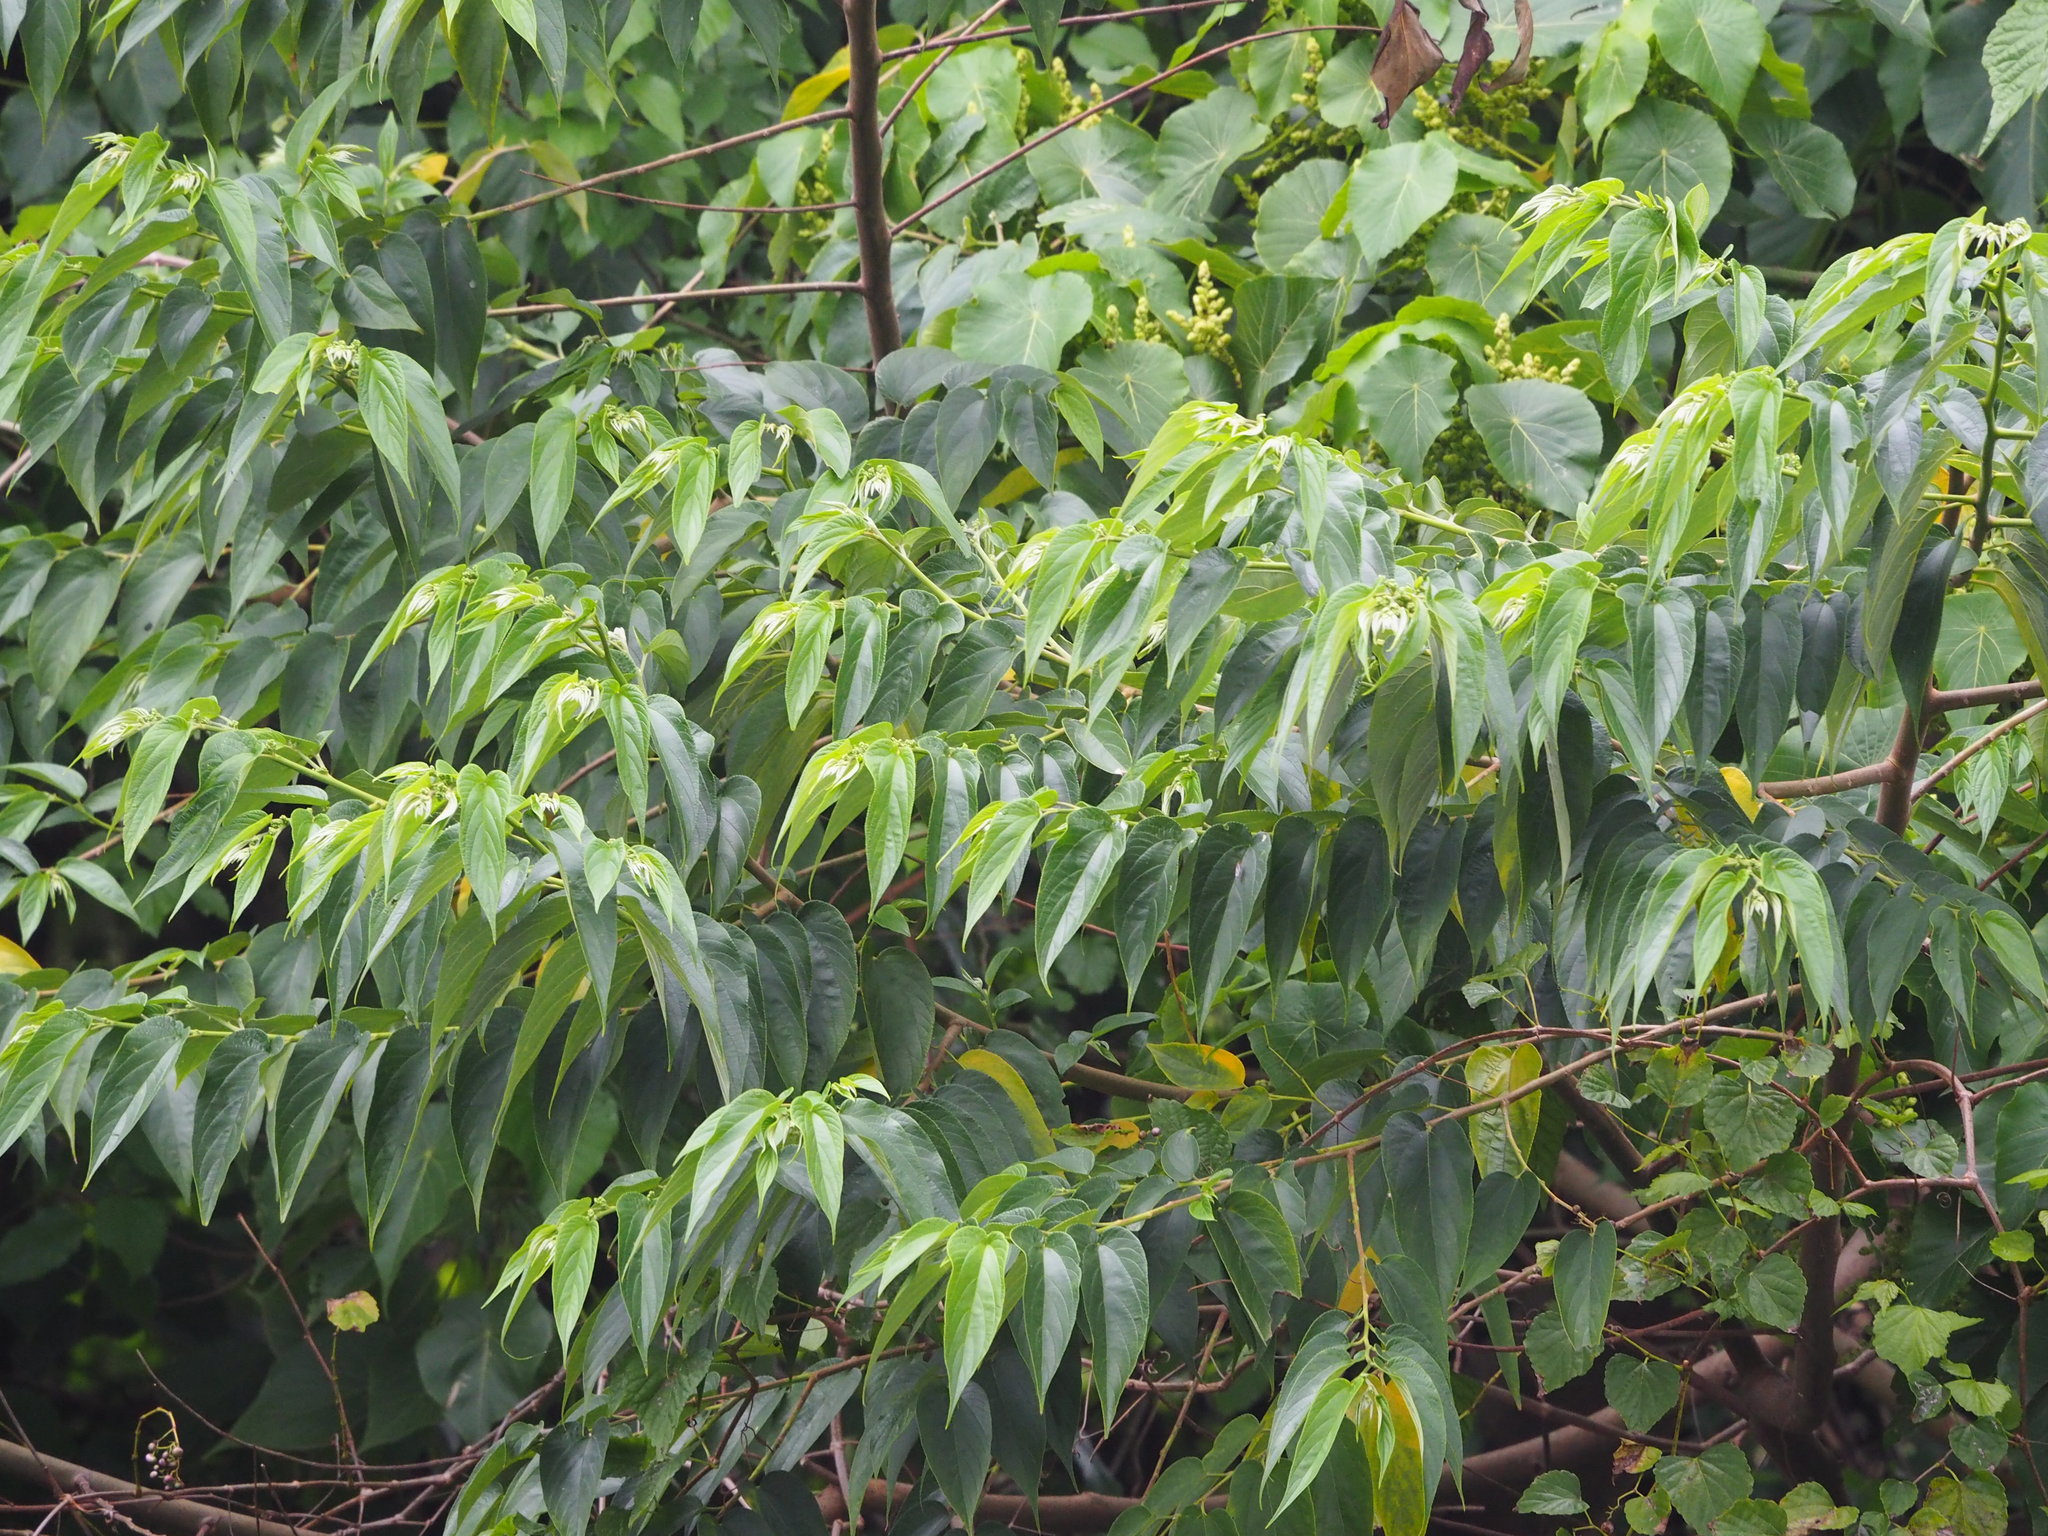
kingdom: Plantae
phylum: Tracheophyta
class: Magnoliopsida
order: Rosales
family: Cannabaceae
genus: Trema
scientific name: Trema orientale
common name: Indian charcoal tree
